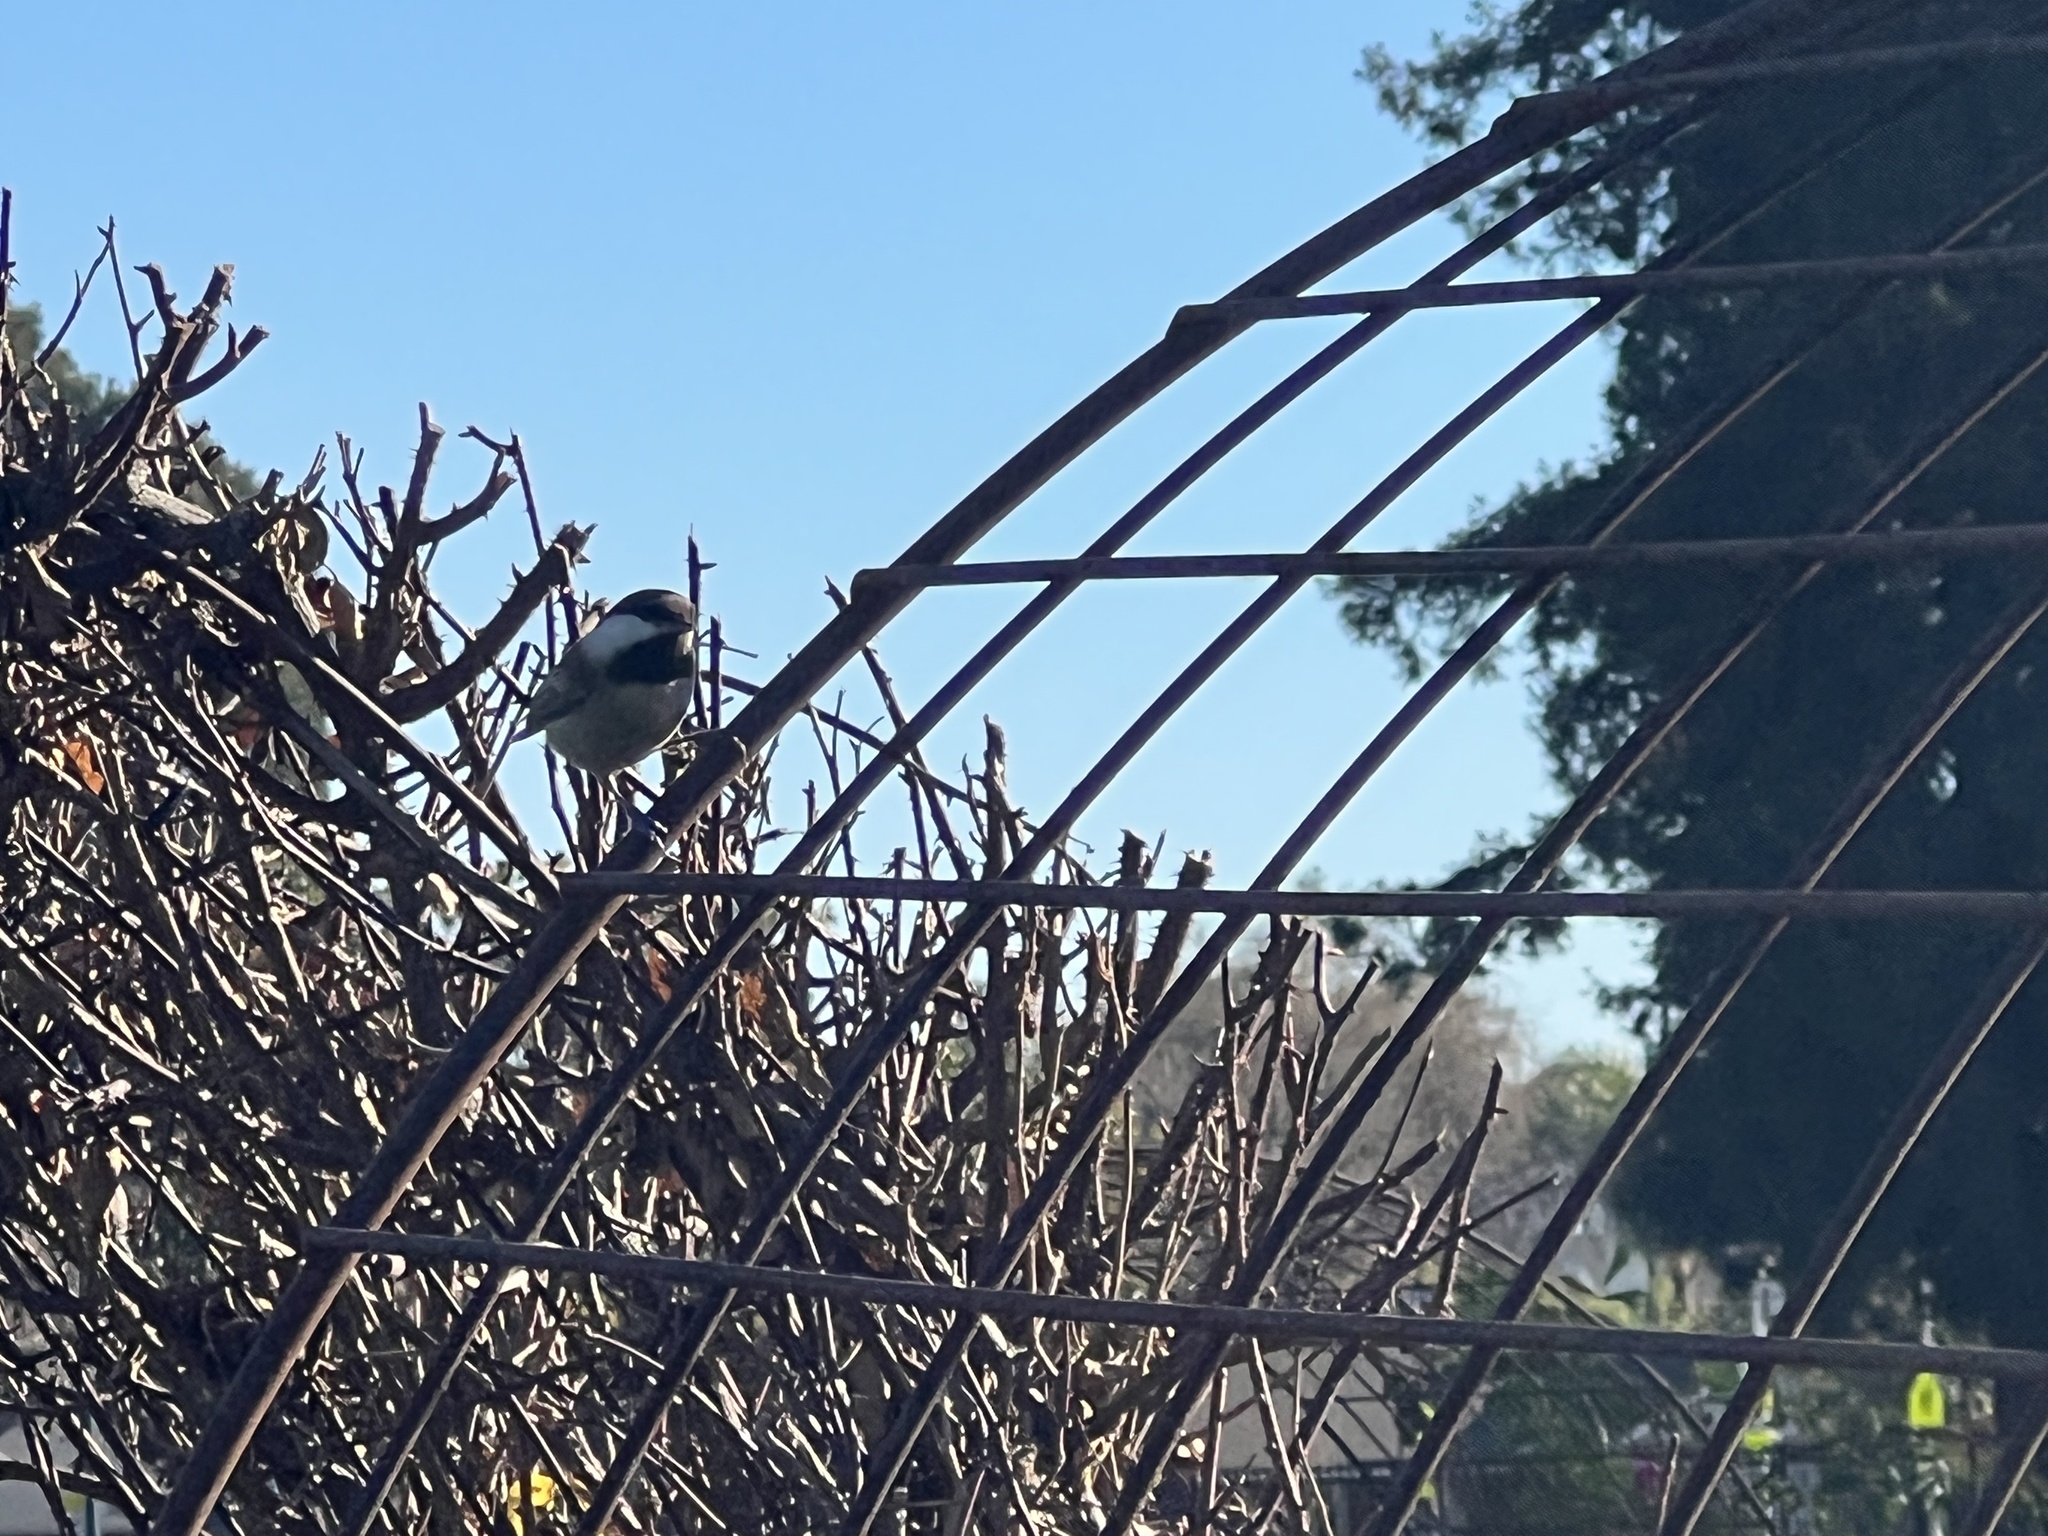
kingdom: Animalia
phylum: Chordata
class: Aves
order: Passeriformes
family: Paridae
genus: Poecile
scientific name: Poecile rufescens
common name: Chestnut-backed chickadee
